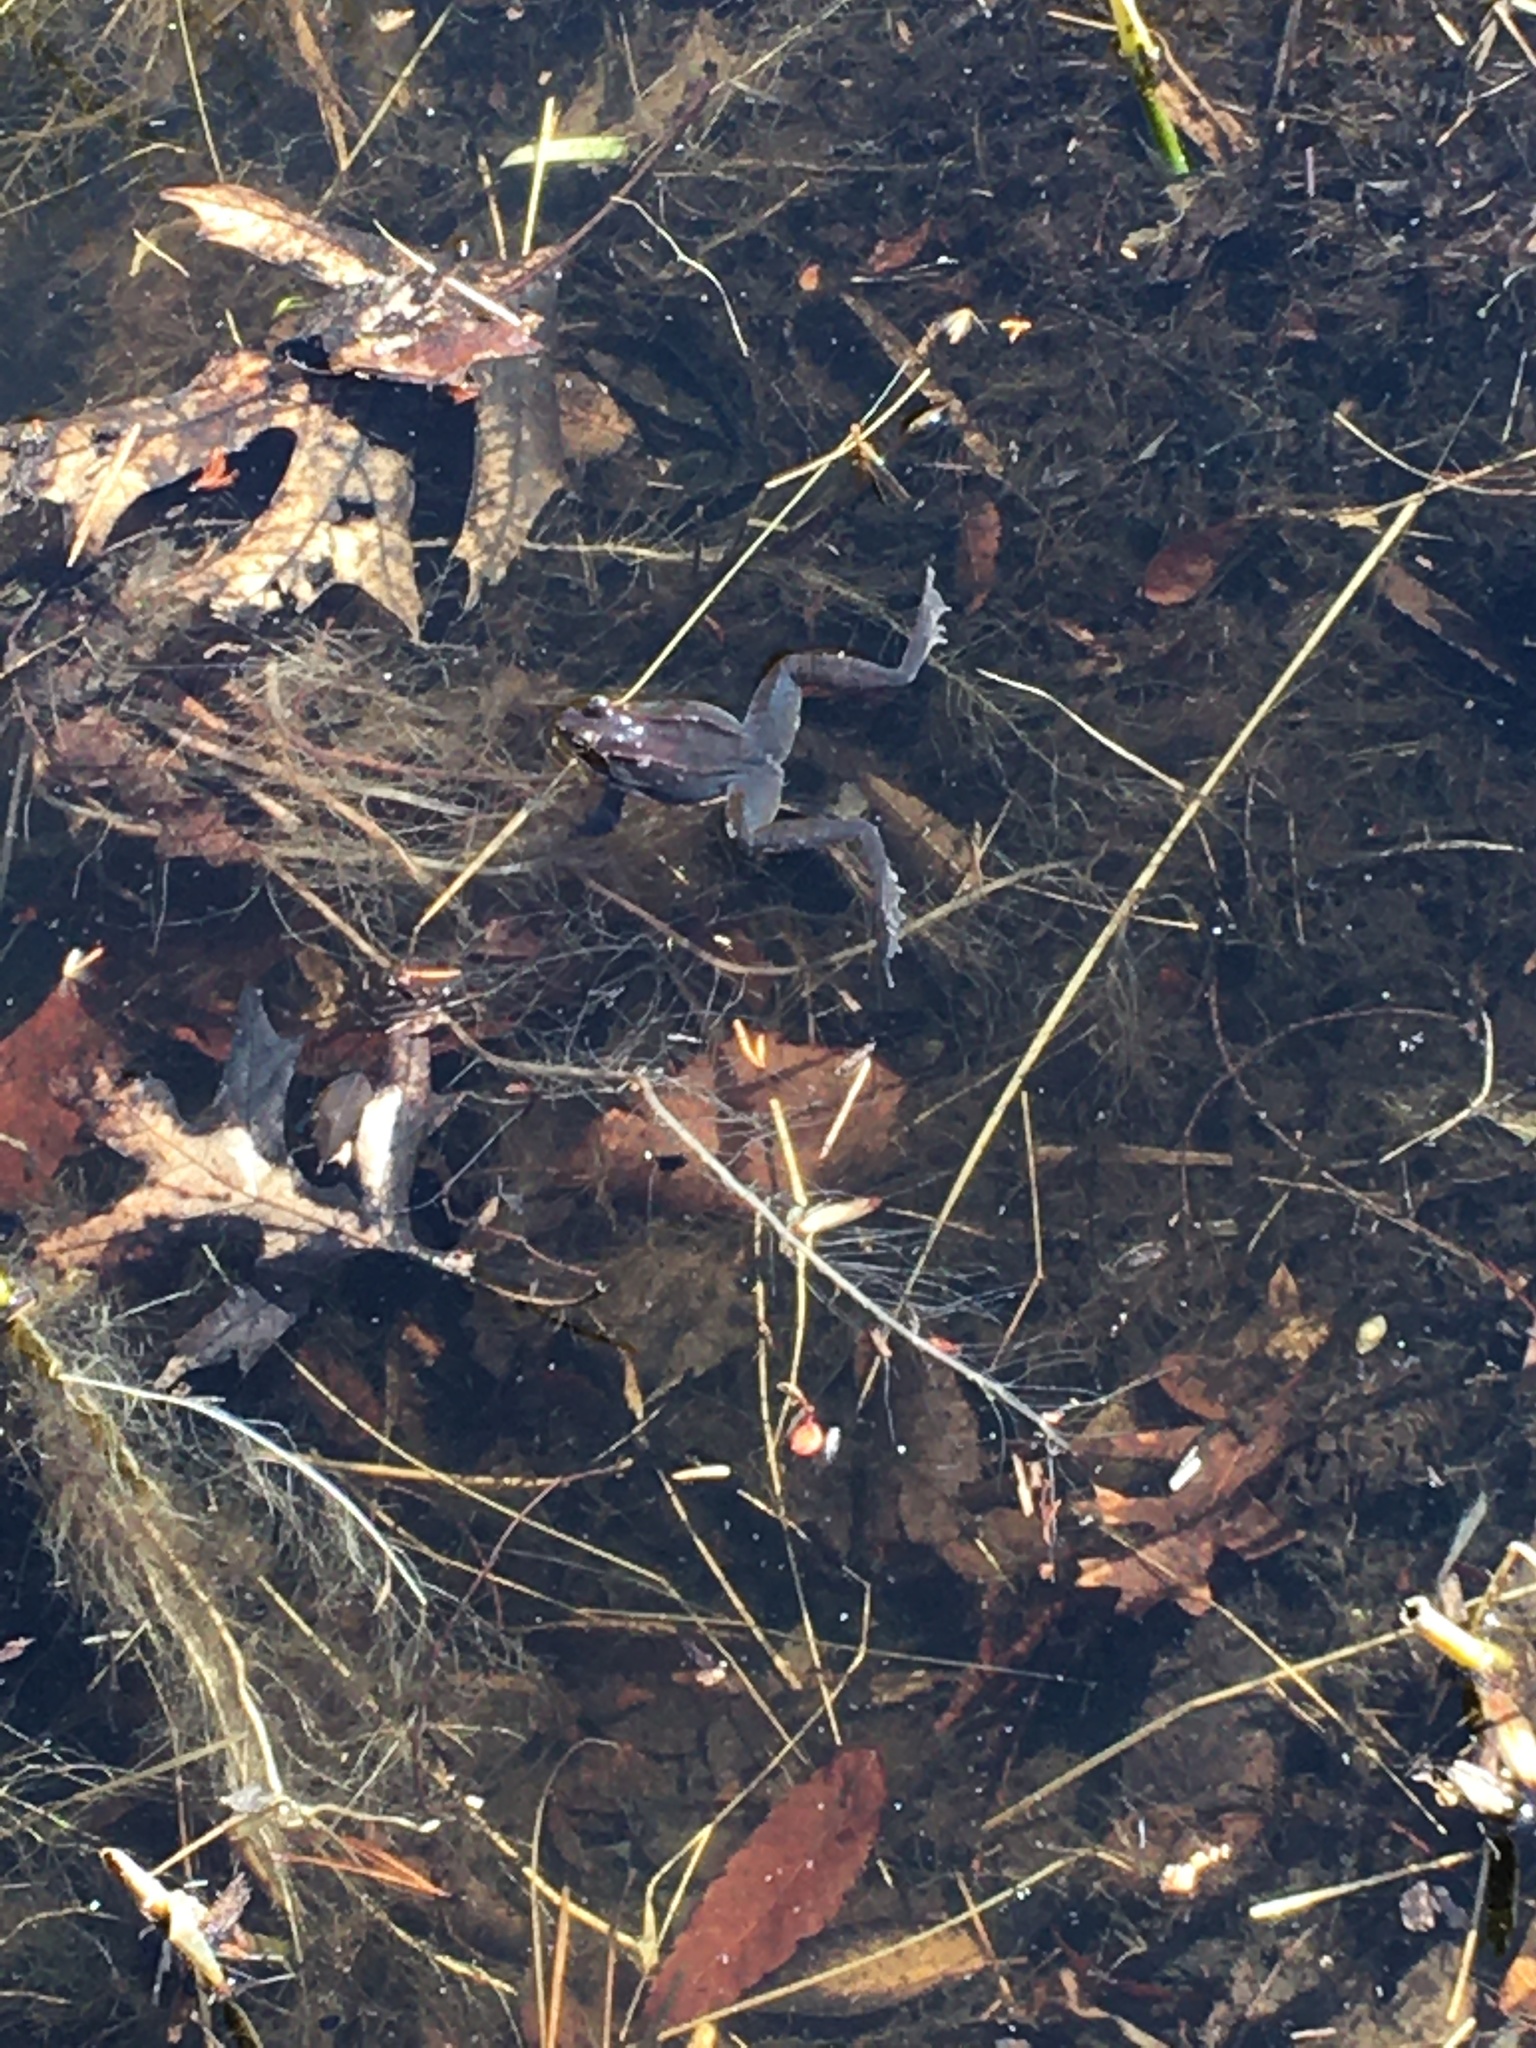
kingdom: Animalia
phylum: Chordata
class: Amphibia
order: Anura
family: Ranidae
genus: Lithobates
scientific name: Lithobates sylvaticus
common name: Wood frog
